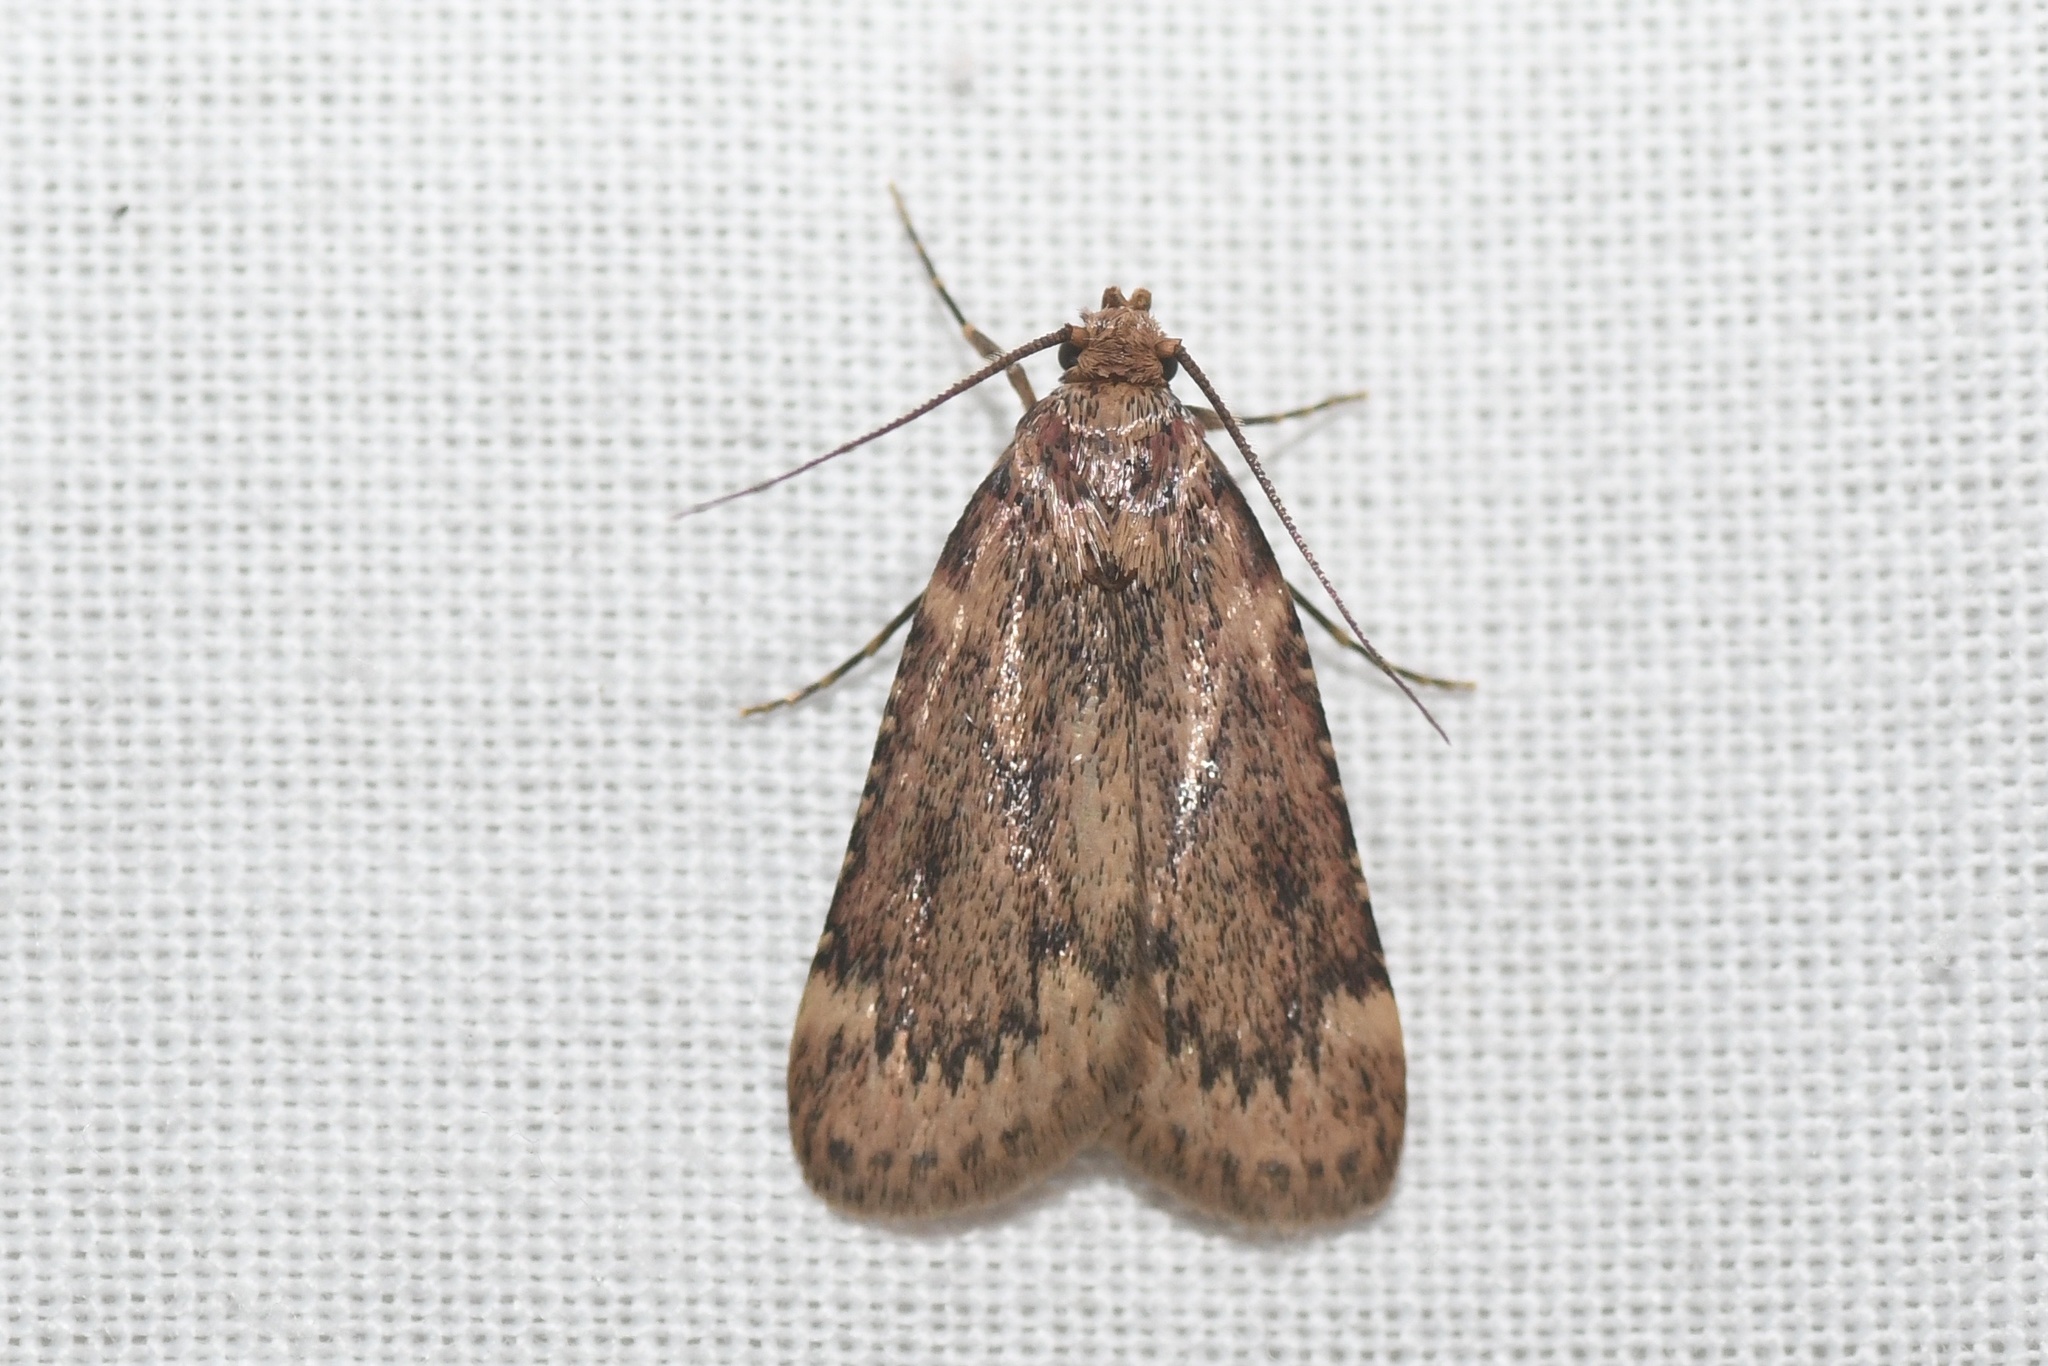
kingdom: Animalia
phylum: Arthropoda
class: Insecta
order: Lepidoptera
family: Pyralidae
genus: Aglossa
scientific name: Aglossa cuprina
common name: Grease moth
